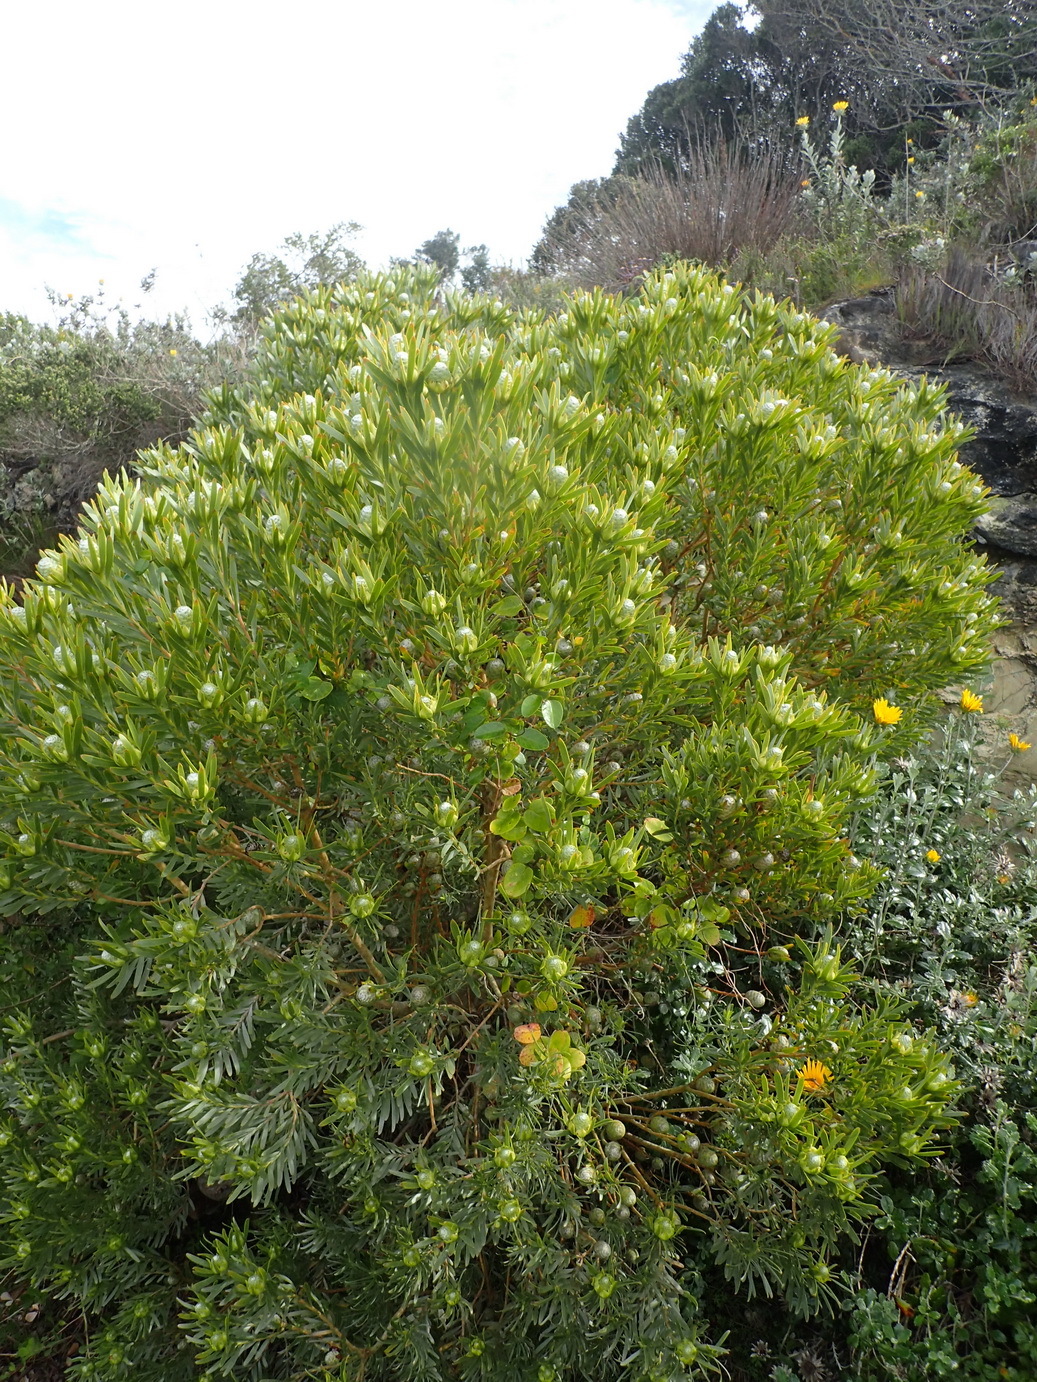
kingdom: Plantae
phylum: Tracheophyta
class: Magnoliopsida
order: Proteales
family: Proteaceae
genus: Leucadendron
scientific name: Leucadendron meridianum
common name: Limestone conebush
